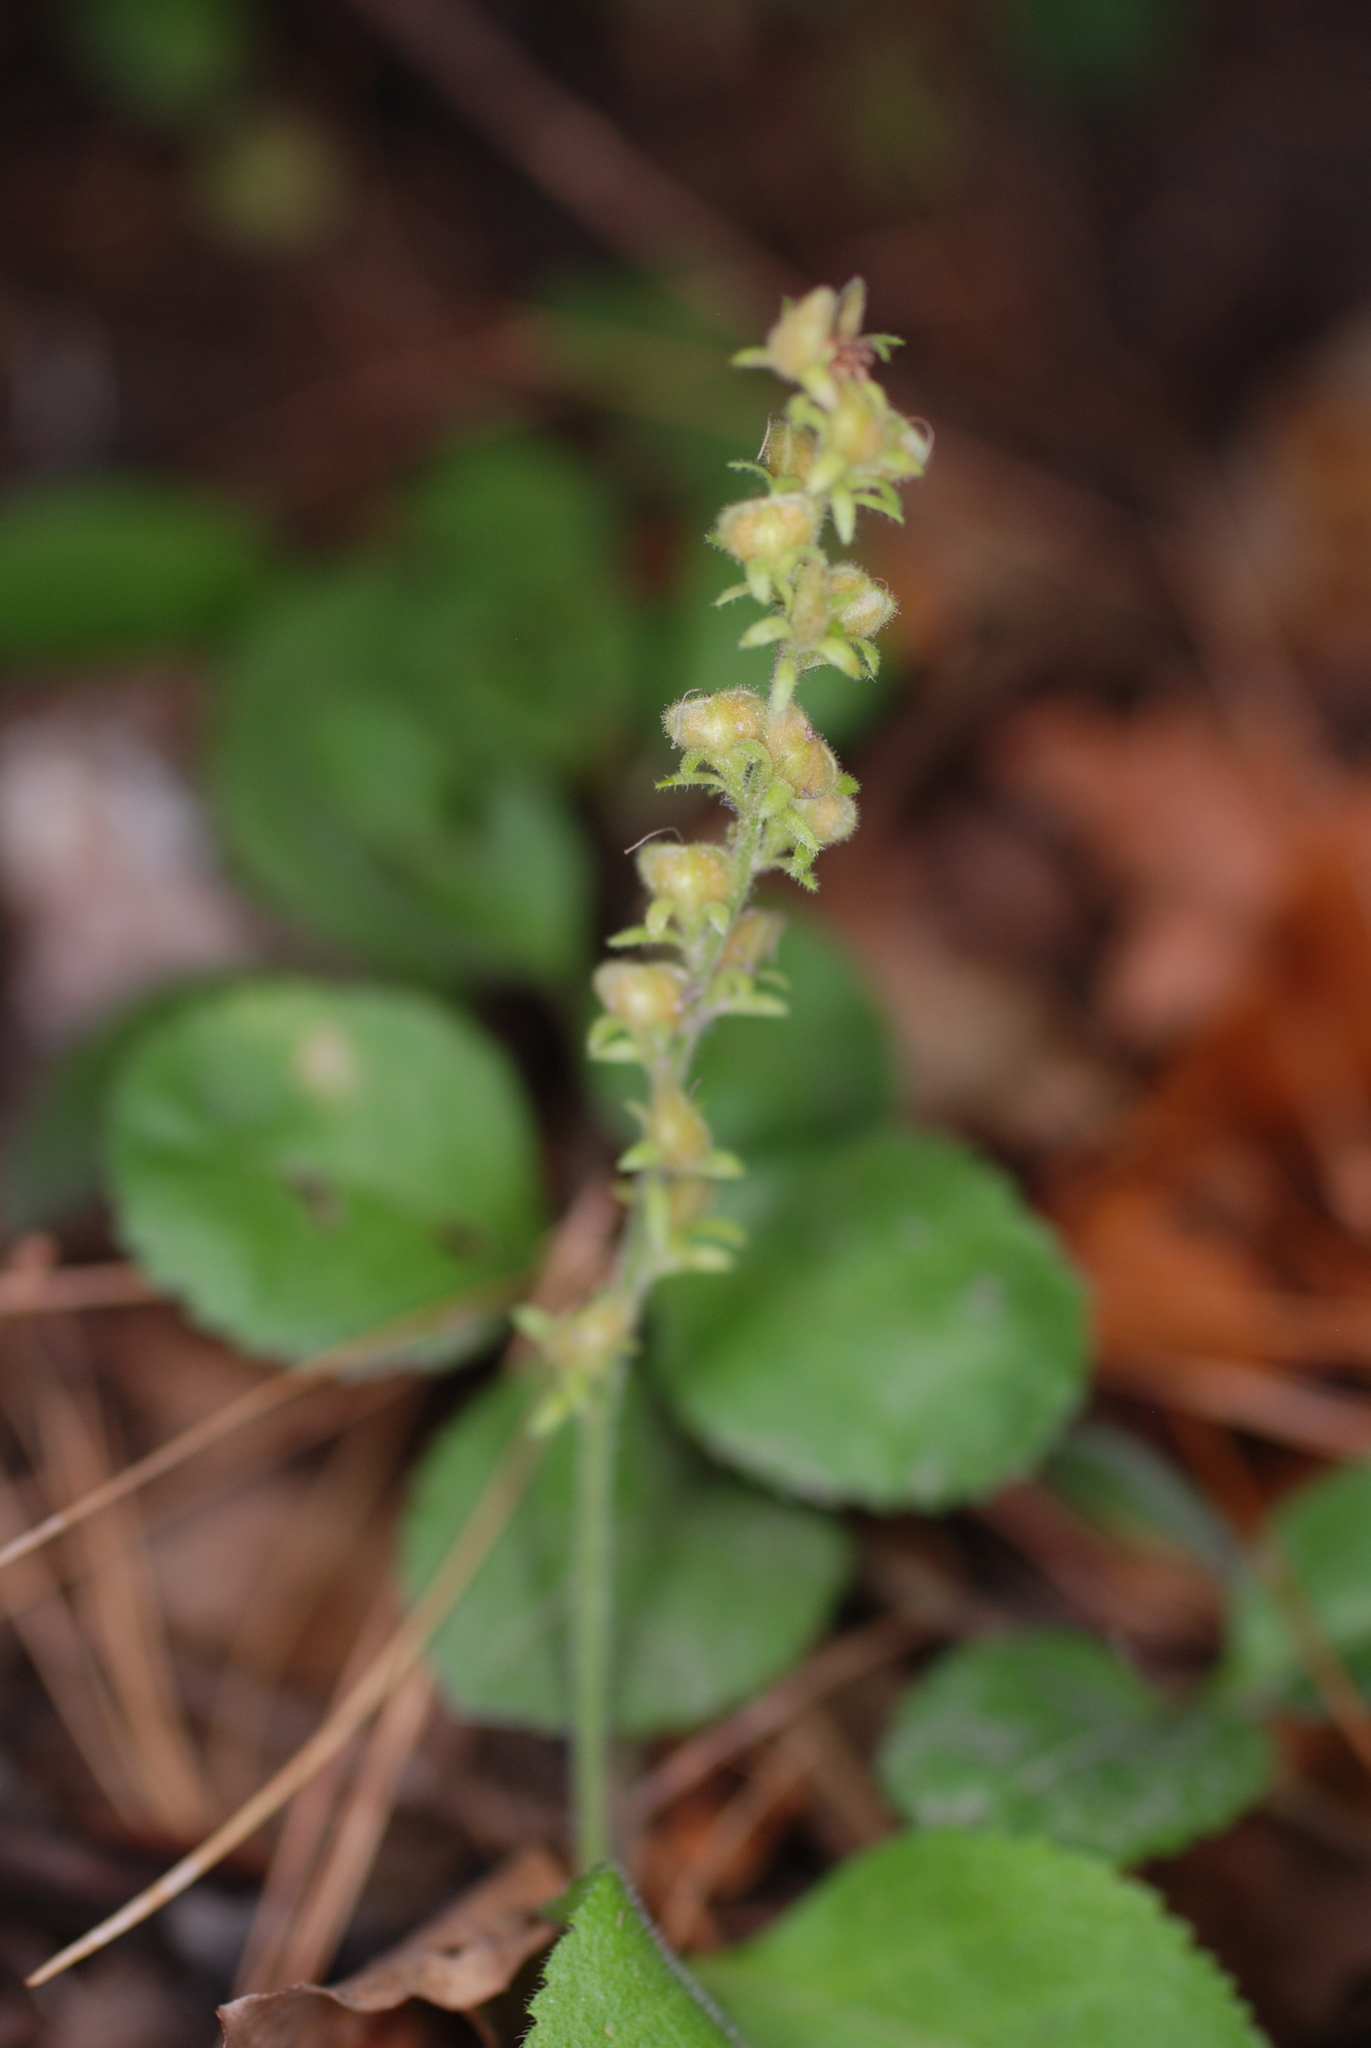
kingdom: Plantae
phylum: Tracheophyta
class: Magnoliopsida
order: Lamiales
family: Plantaginaceae
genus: Veronica
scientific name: Veronica officinalis
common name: Common speedwell
